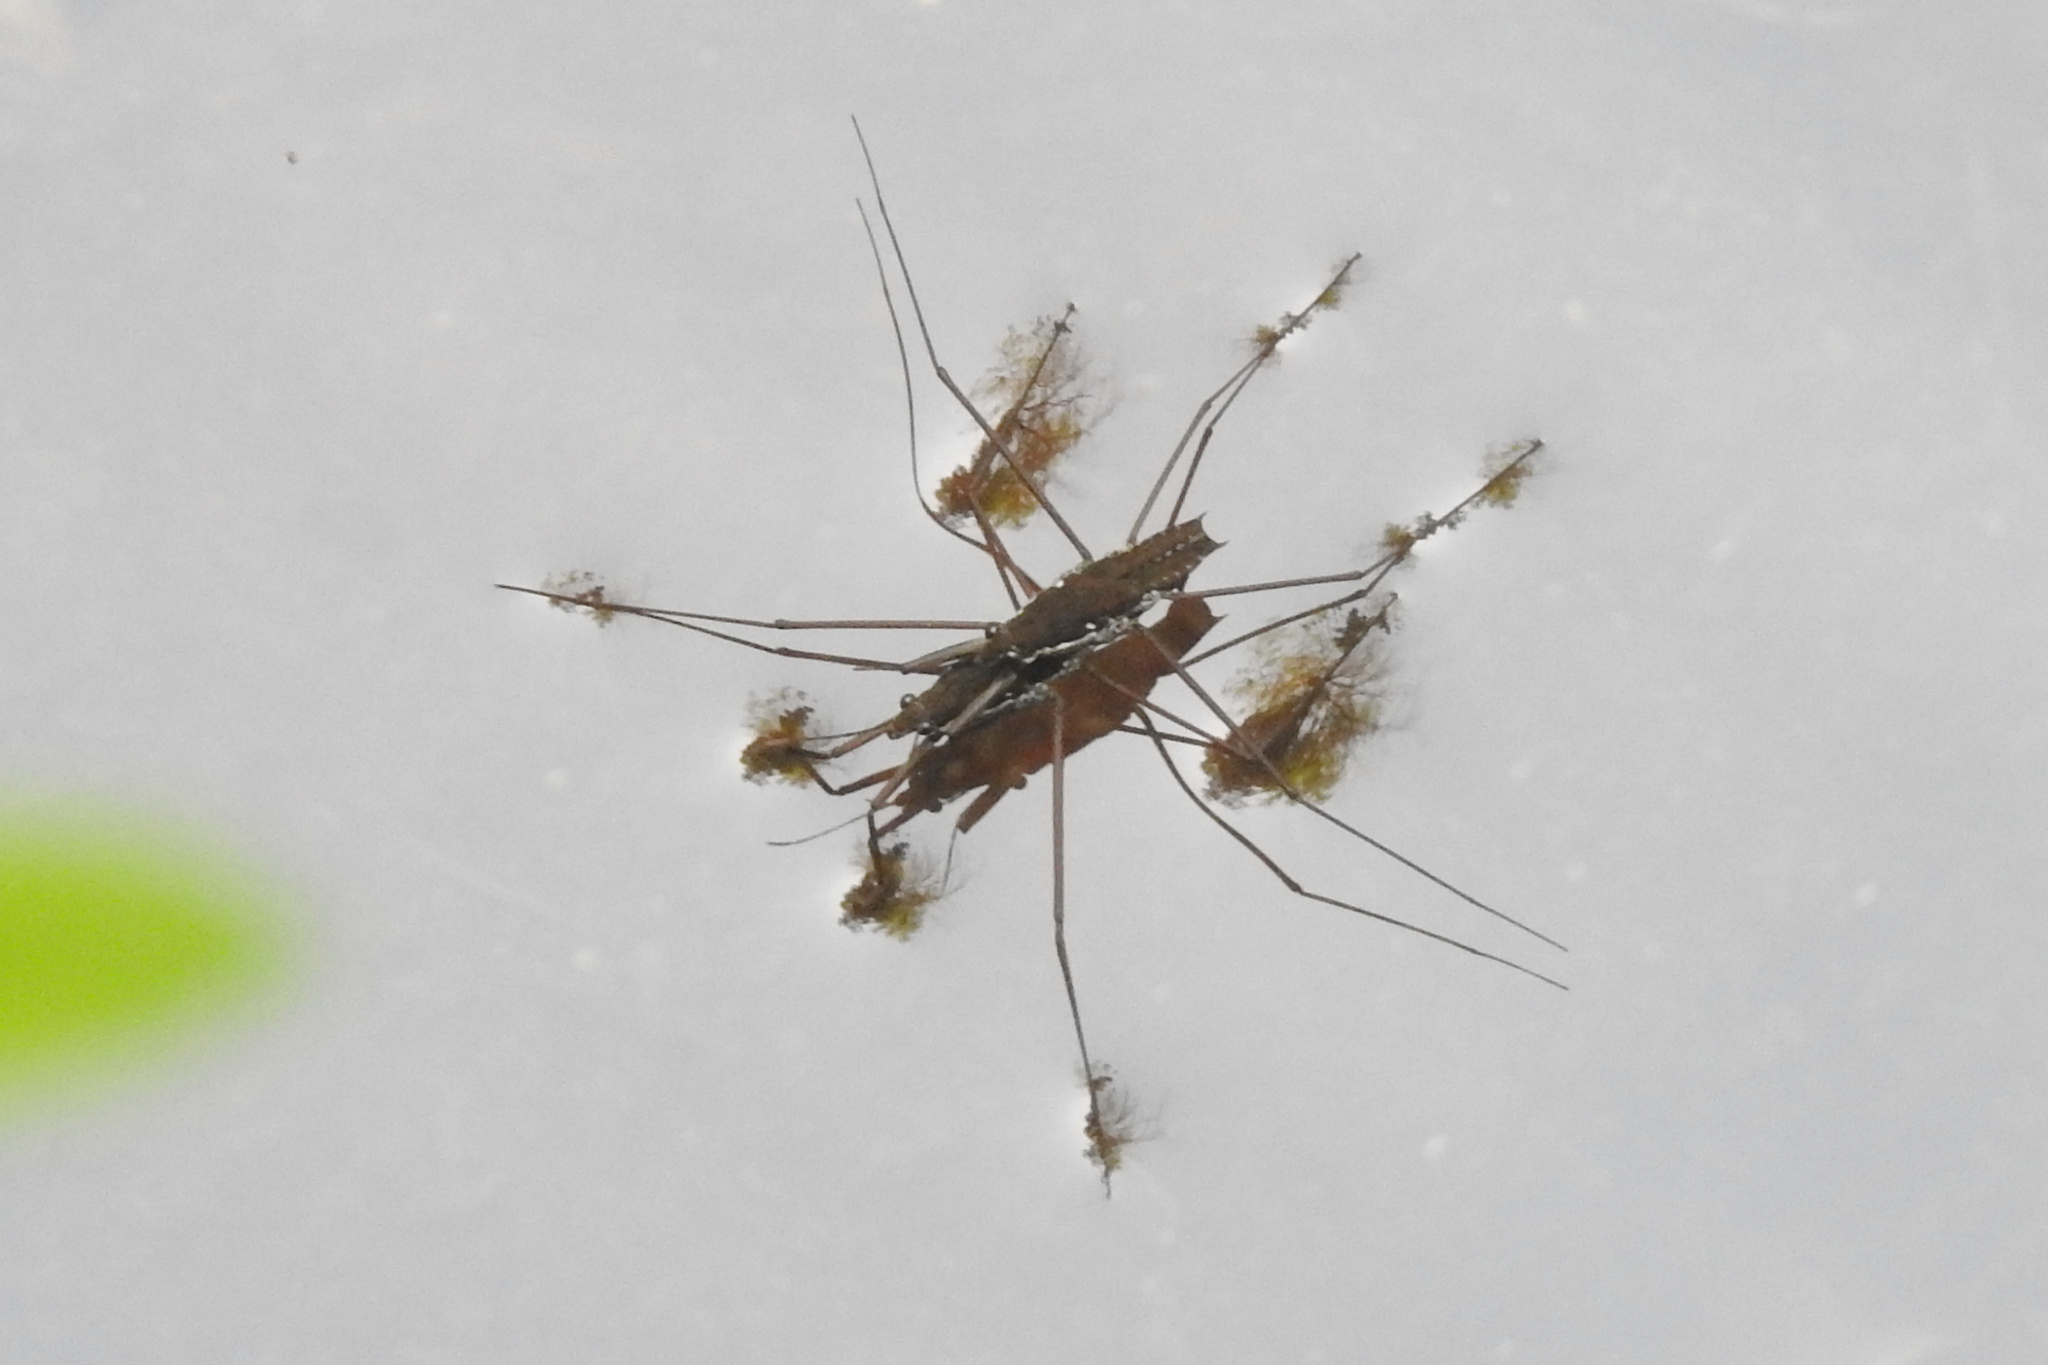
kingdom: Animalia
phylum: Arthropoda
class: Insecta
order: Hemiptera
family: Gerridae
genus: Aquarius
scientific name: Aquarius
